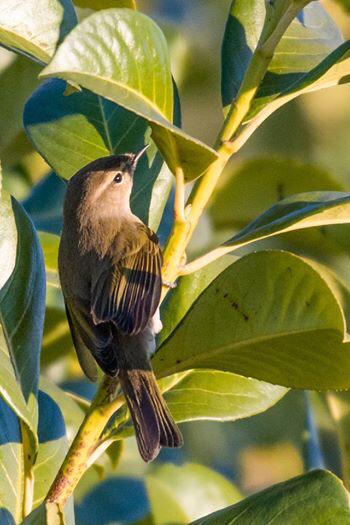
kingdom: Animalia
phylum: Chordata
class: Aves
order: Passeriformes
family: Phylloscopidae
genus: Phylloscopus
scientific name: Phylloscopus collybita
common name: Common chiffchaff
